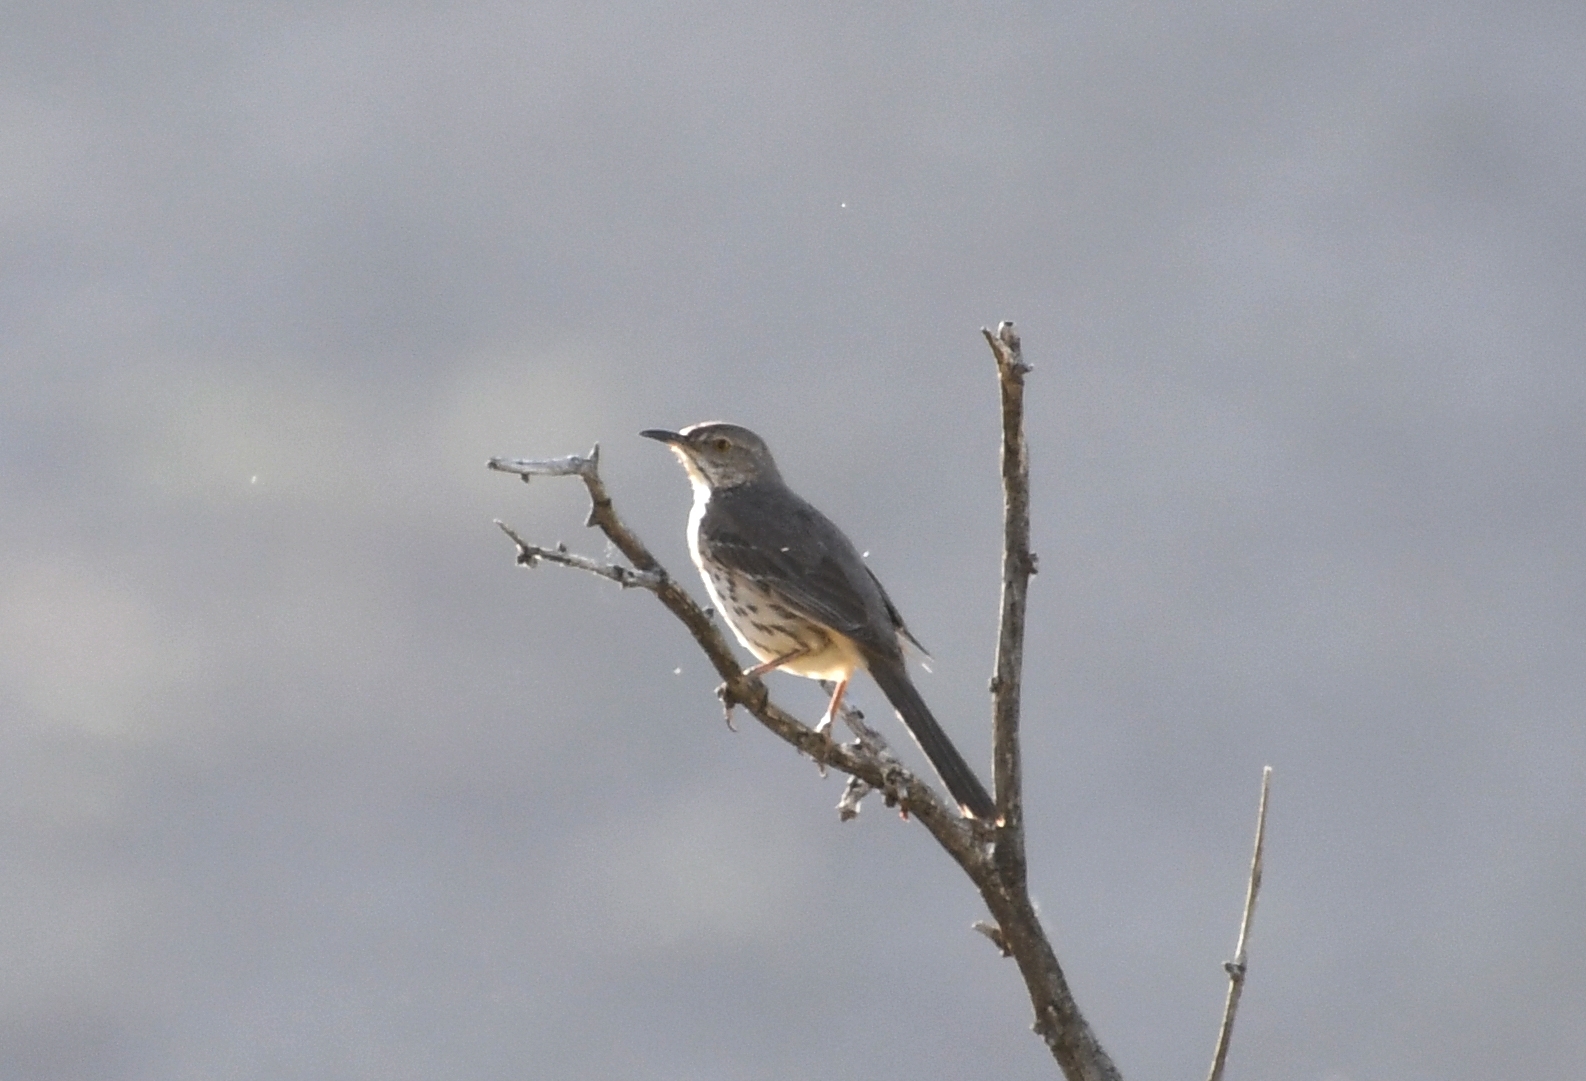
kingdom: Animalia
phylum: Chordata
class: Aves
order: Passeriformes
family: Mimidae
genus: Oreoscoptes
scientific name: Oreoscoptes montanus
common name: Sage thrasher
